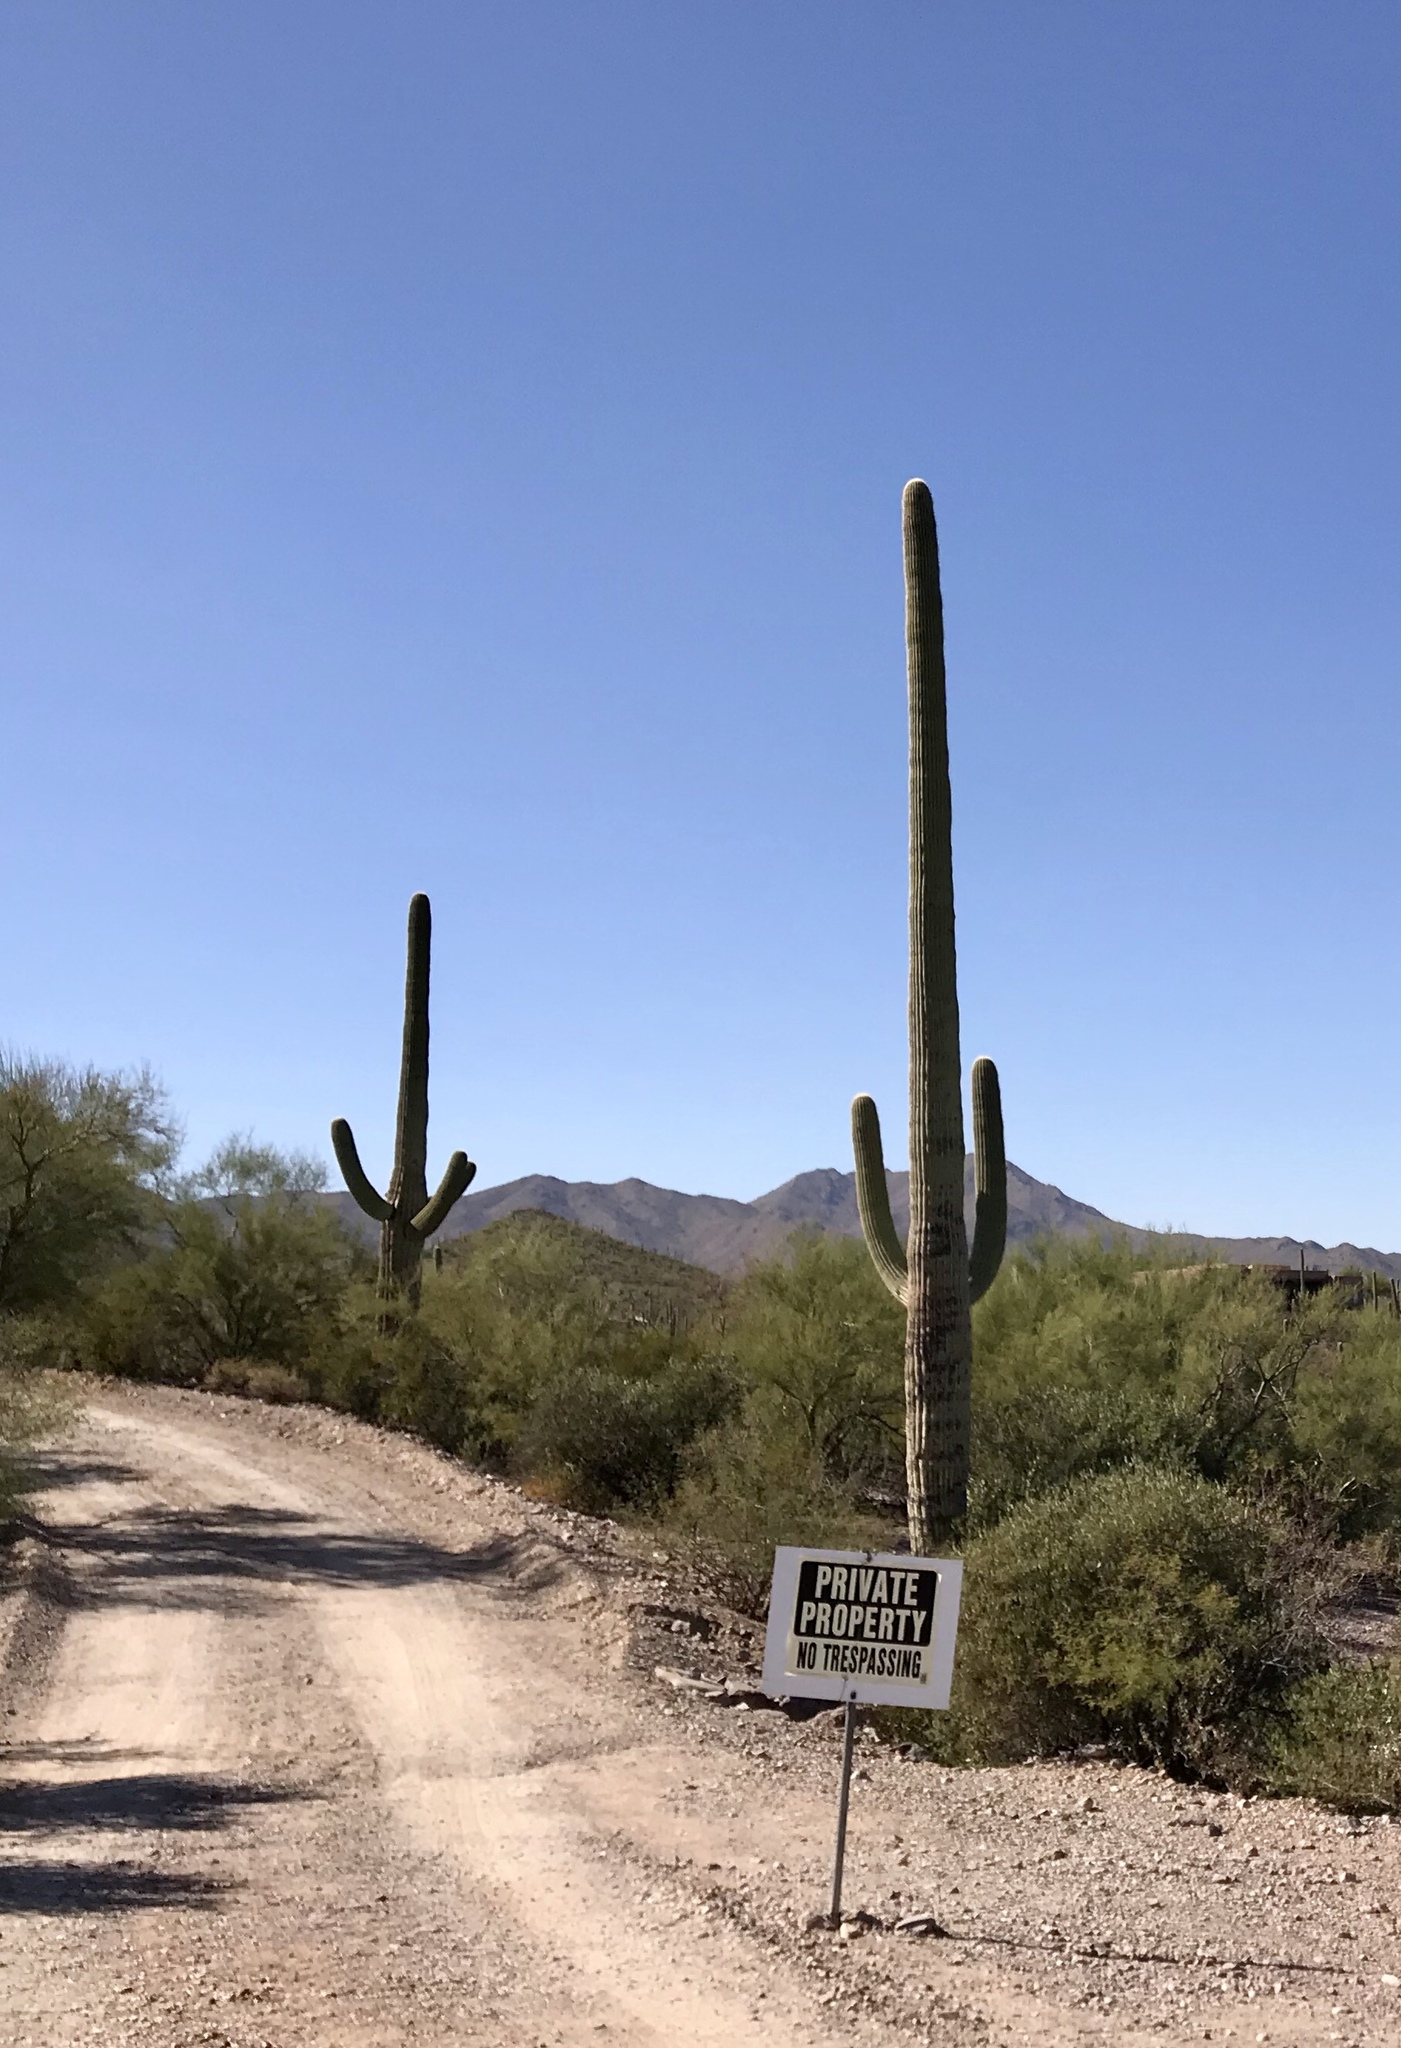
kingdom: Plantae
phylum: Tracheophyta
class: Magnoliopsida
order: Caryophyllales
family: Cactaceae
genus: Carnegiea
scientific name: Carnegiea gigantea
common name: Saguaro
